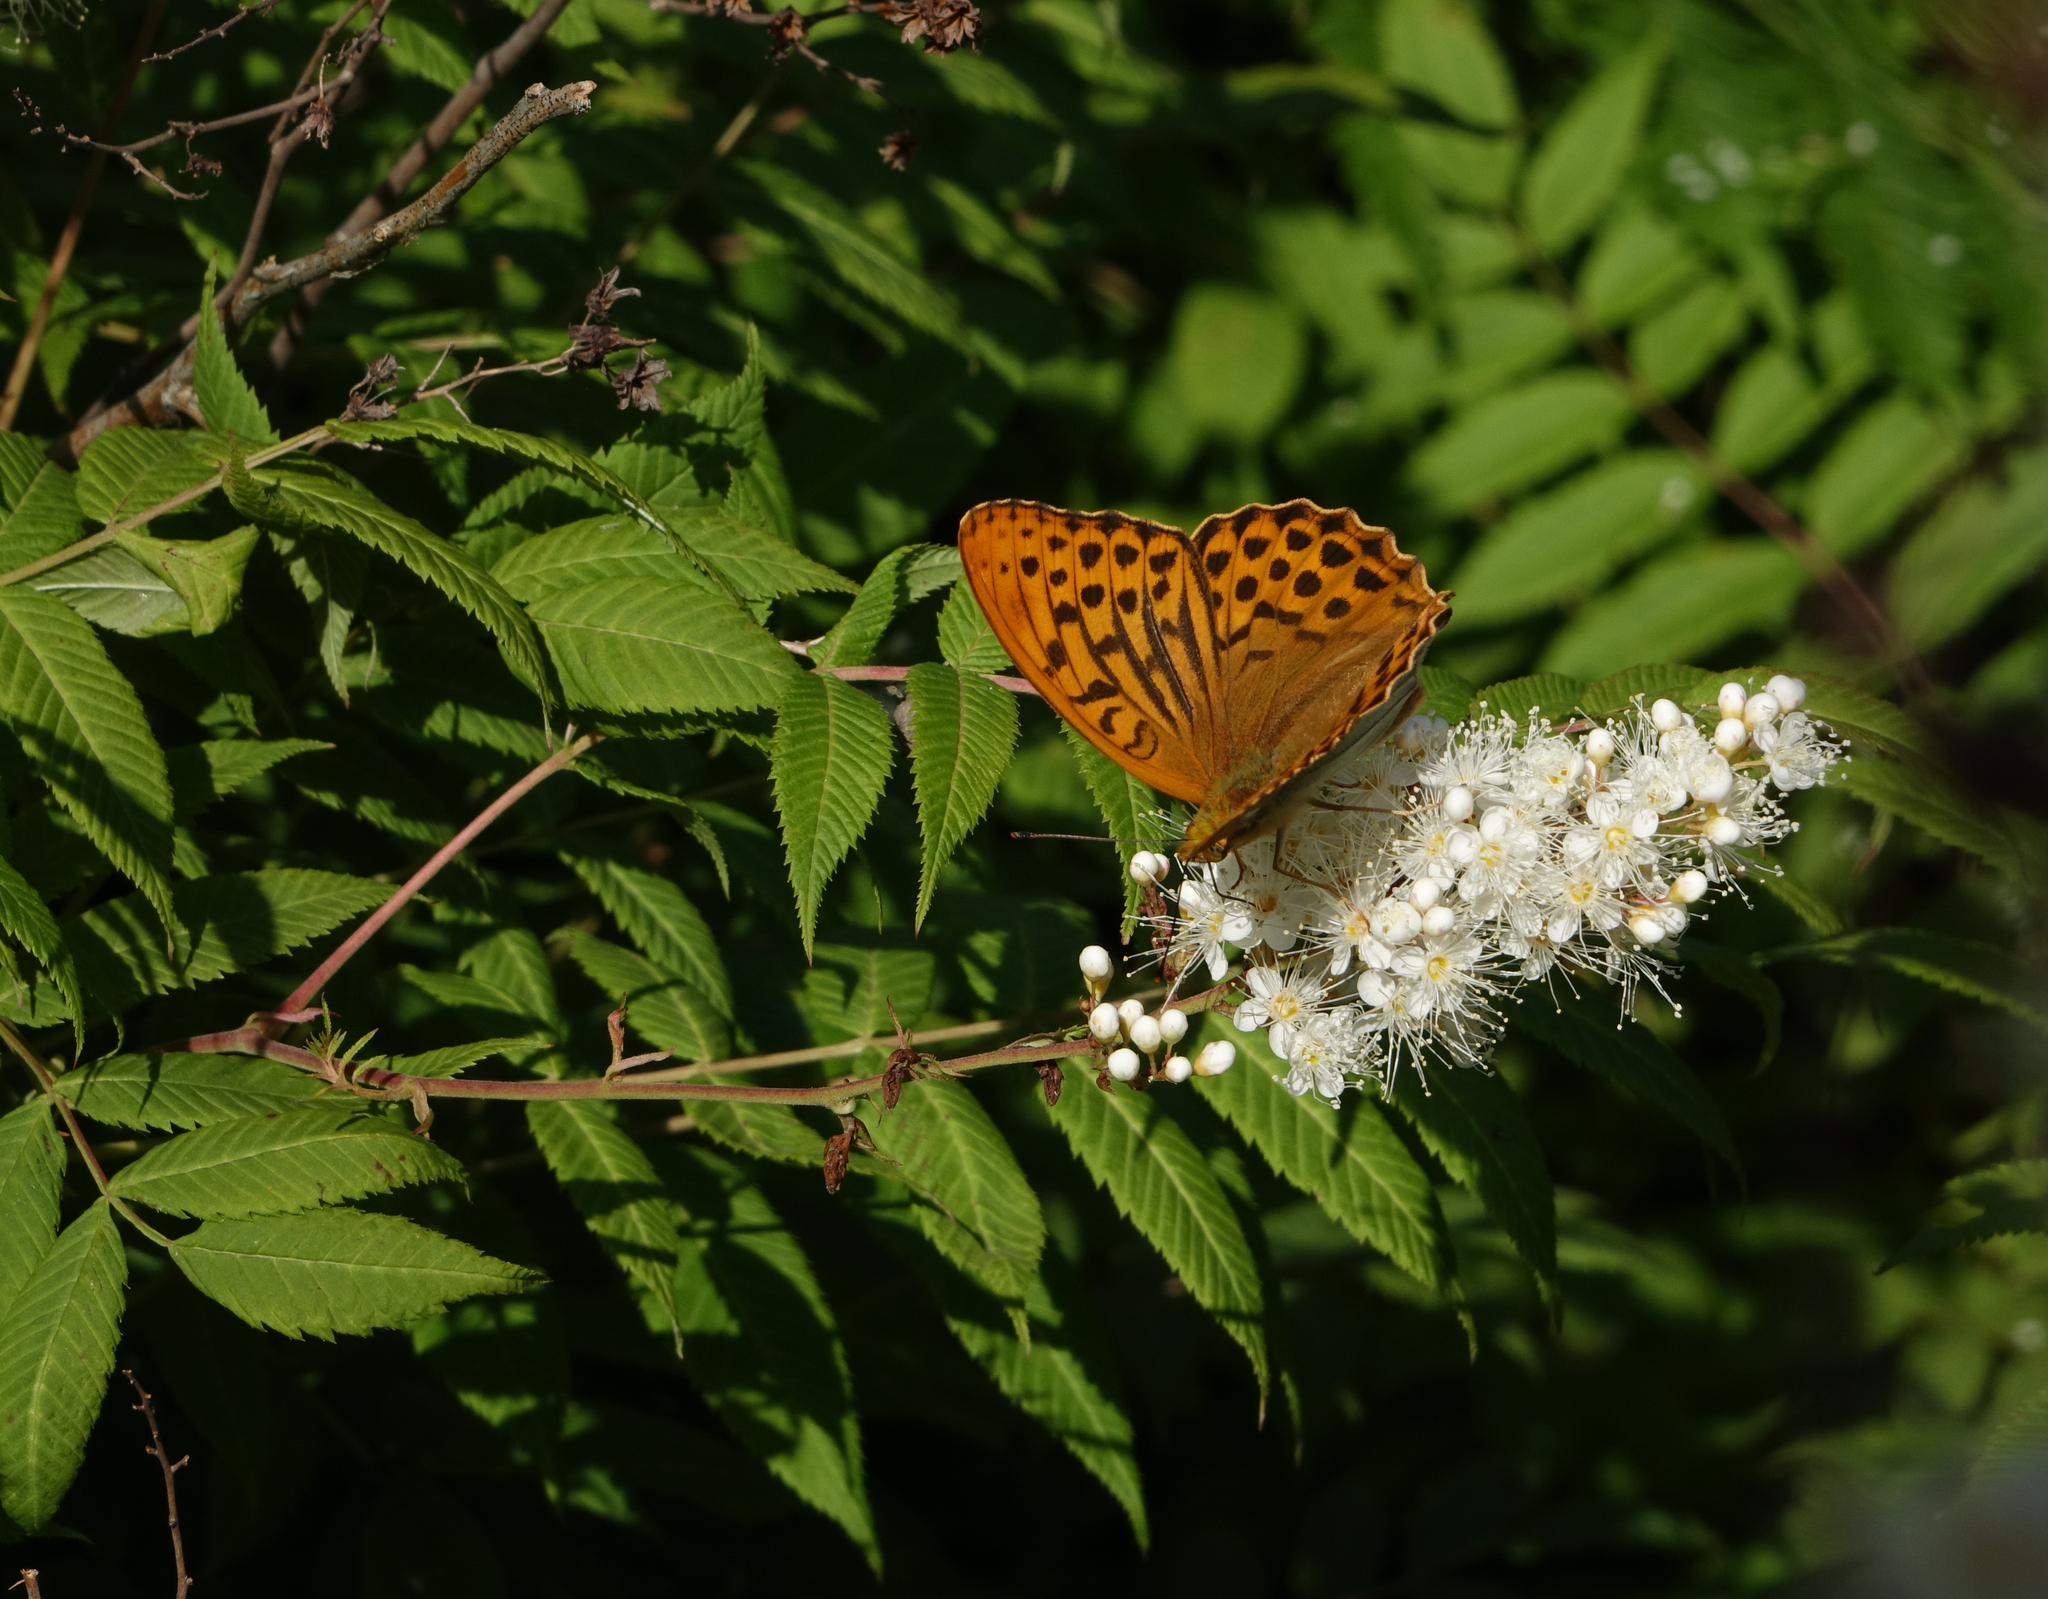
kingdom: Animalia
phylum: Arthropoda
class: Insecta
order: Lepidoptera
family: Nymphalidae
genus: Argynnis
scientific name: Argynnis paphia
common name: Silver-washed fritillary
